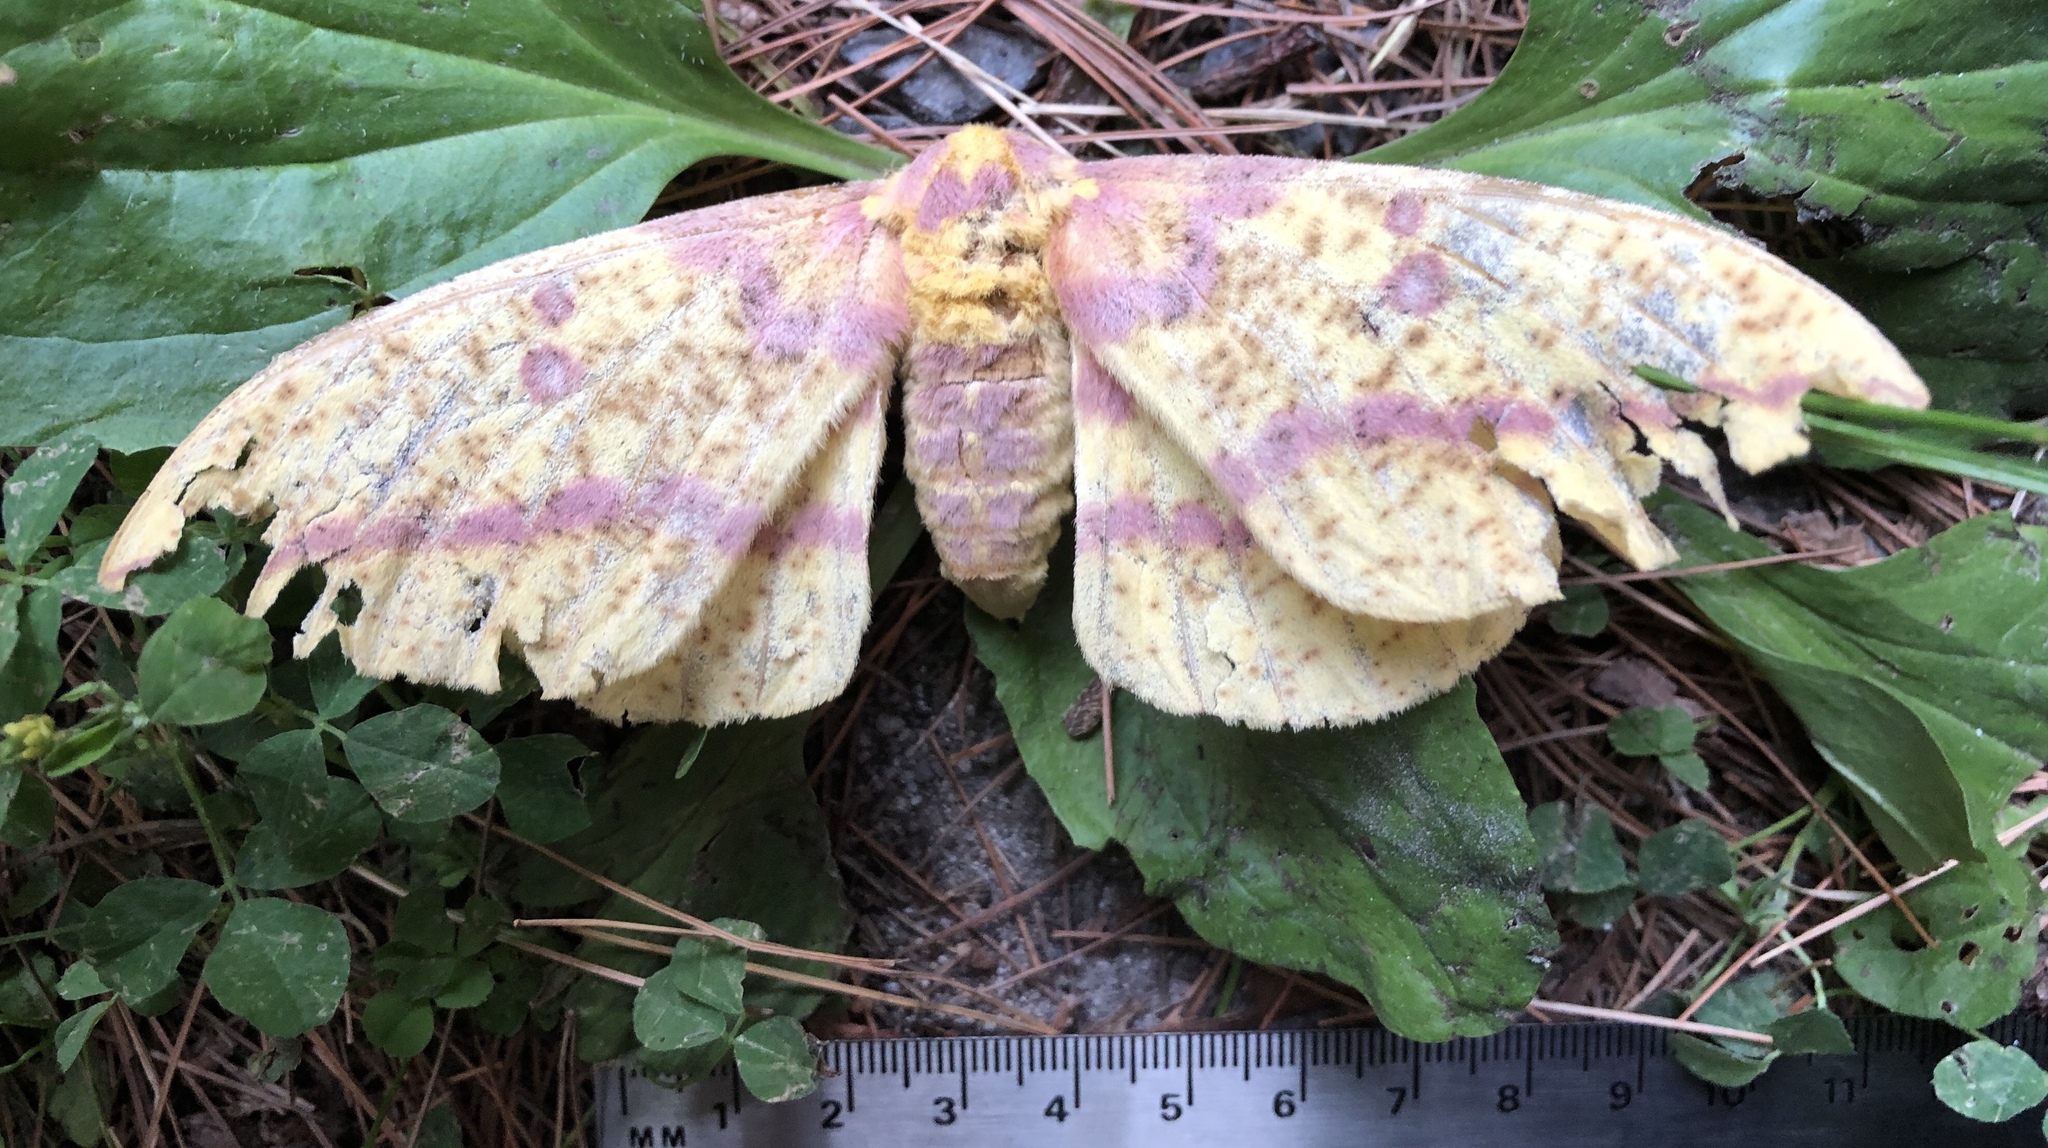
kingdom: Animalia
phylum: Arthropoda
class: Insecta
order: Lepidoptera
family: Saturniidae
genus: Eacles
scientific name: Eacles
